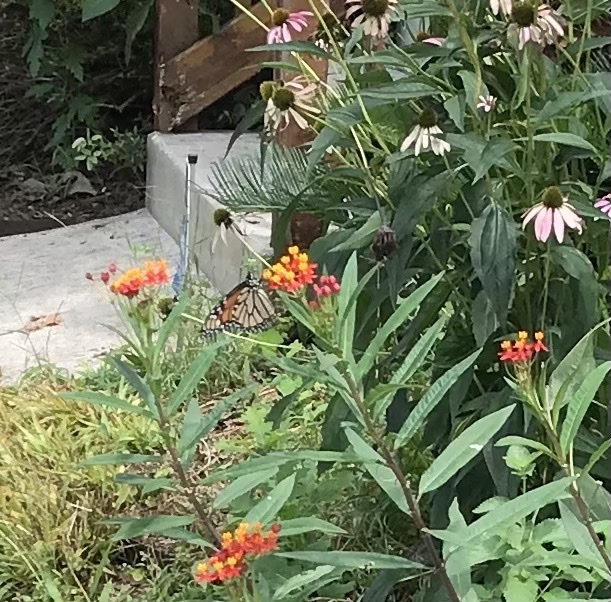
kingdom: Animalia
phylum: Arthropoda
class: Insecta
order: Lepidoptera
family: Nymphalidae
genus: Danaus
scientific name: Danaus plexippus
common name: Monarch
